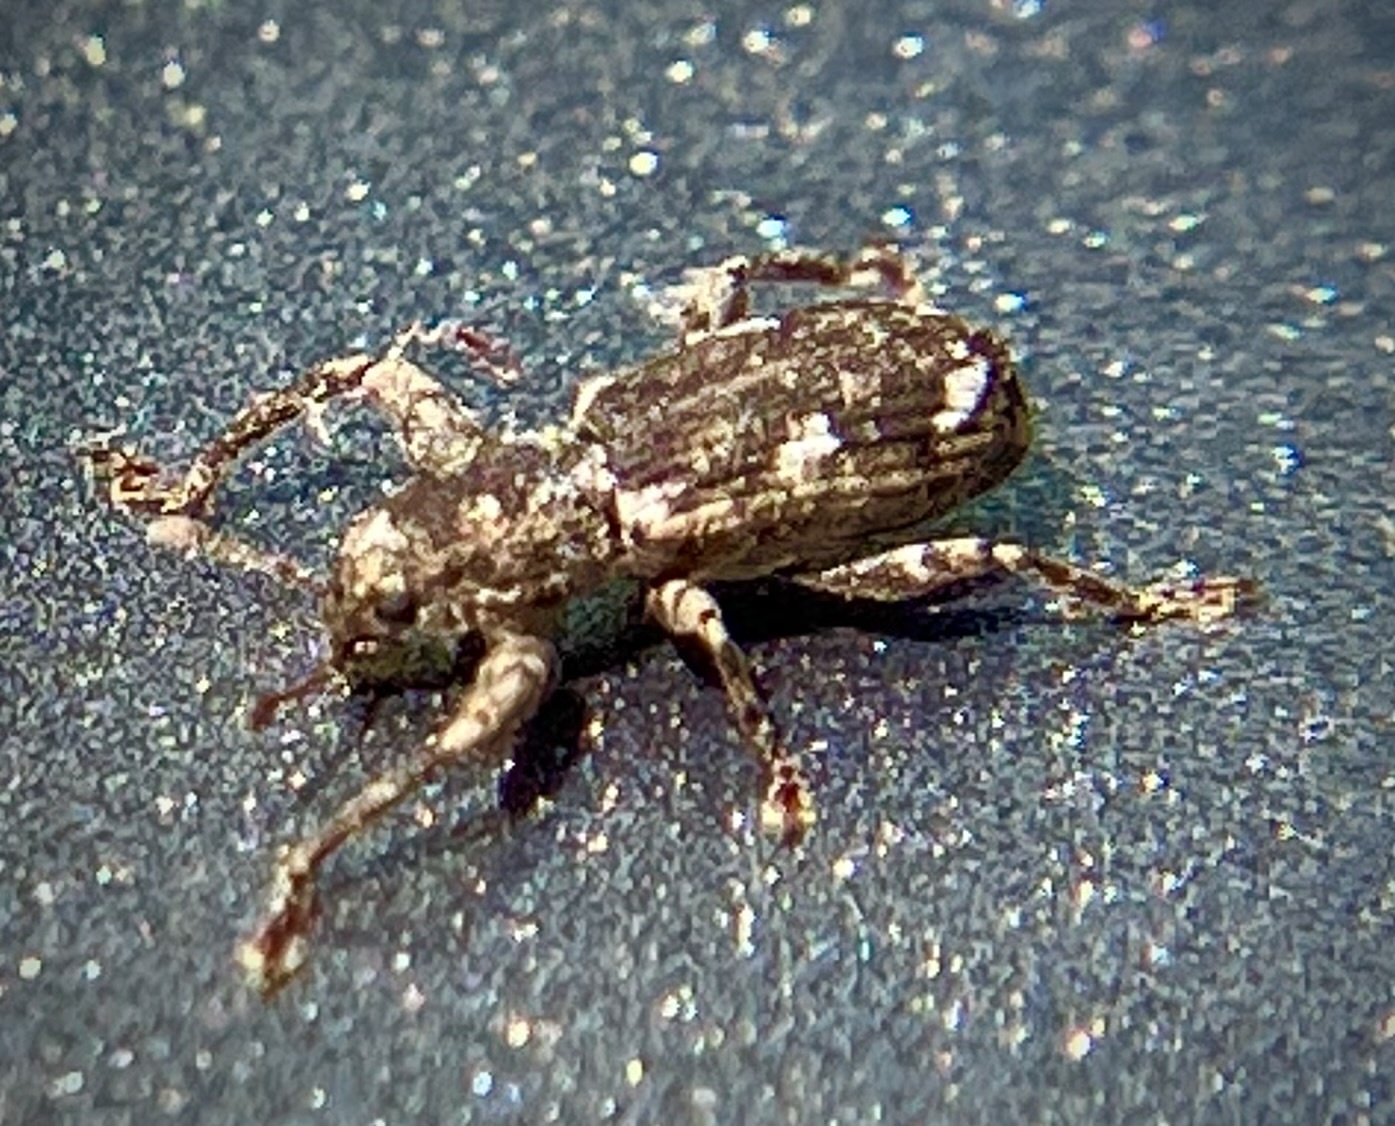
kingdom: Animalia
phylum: Arthropoda
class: Insecta
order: Coleoptera
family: Curculionidae
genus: Pandeleteius
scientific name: Pandeleteius hilaris
